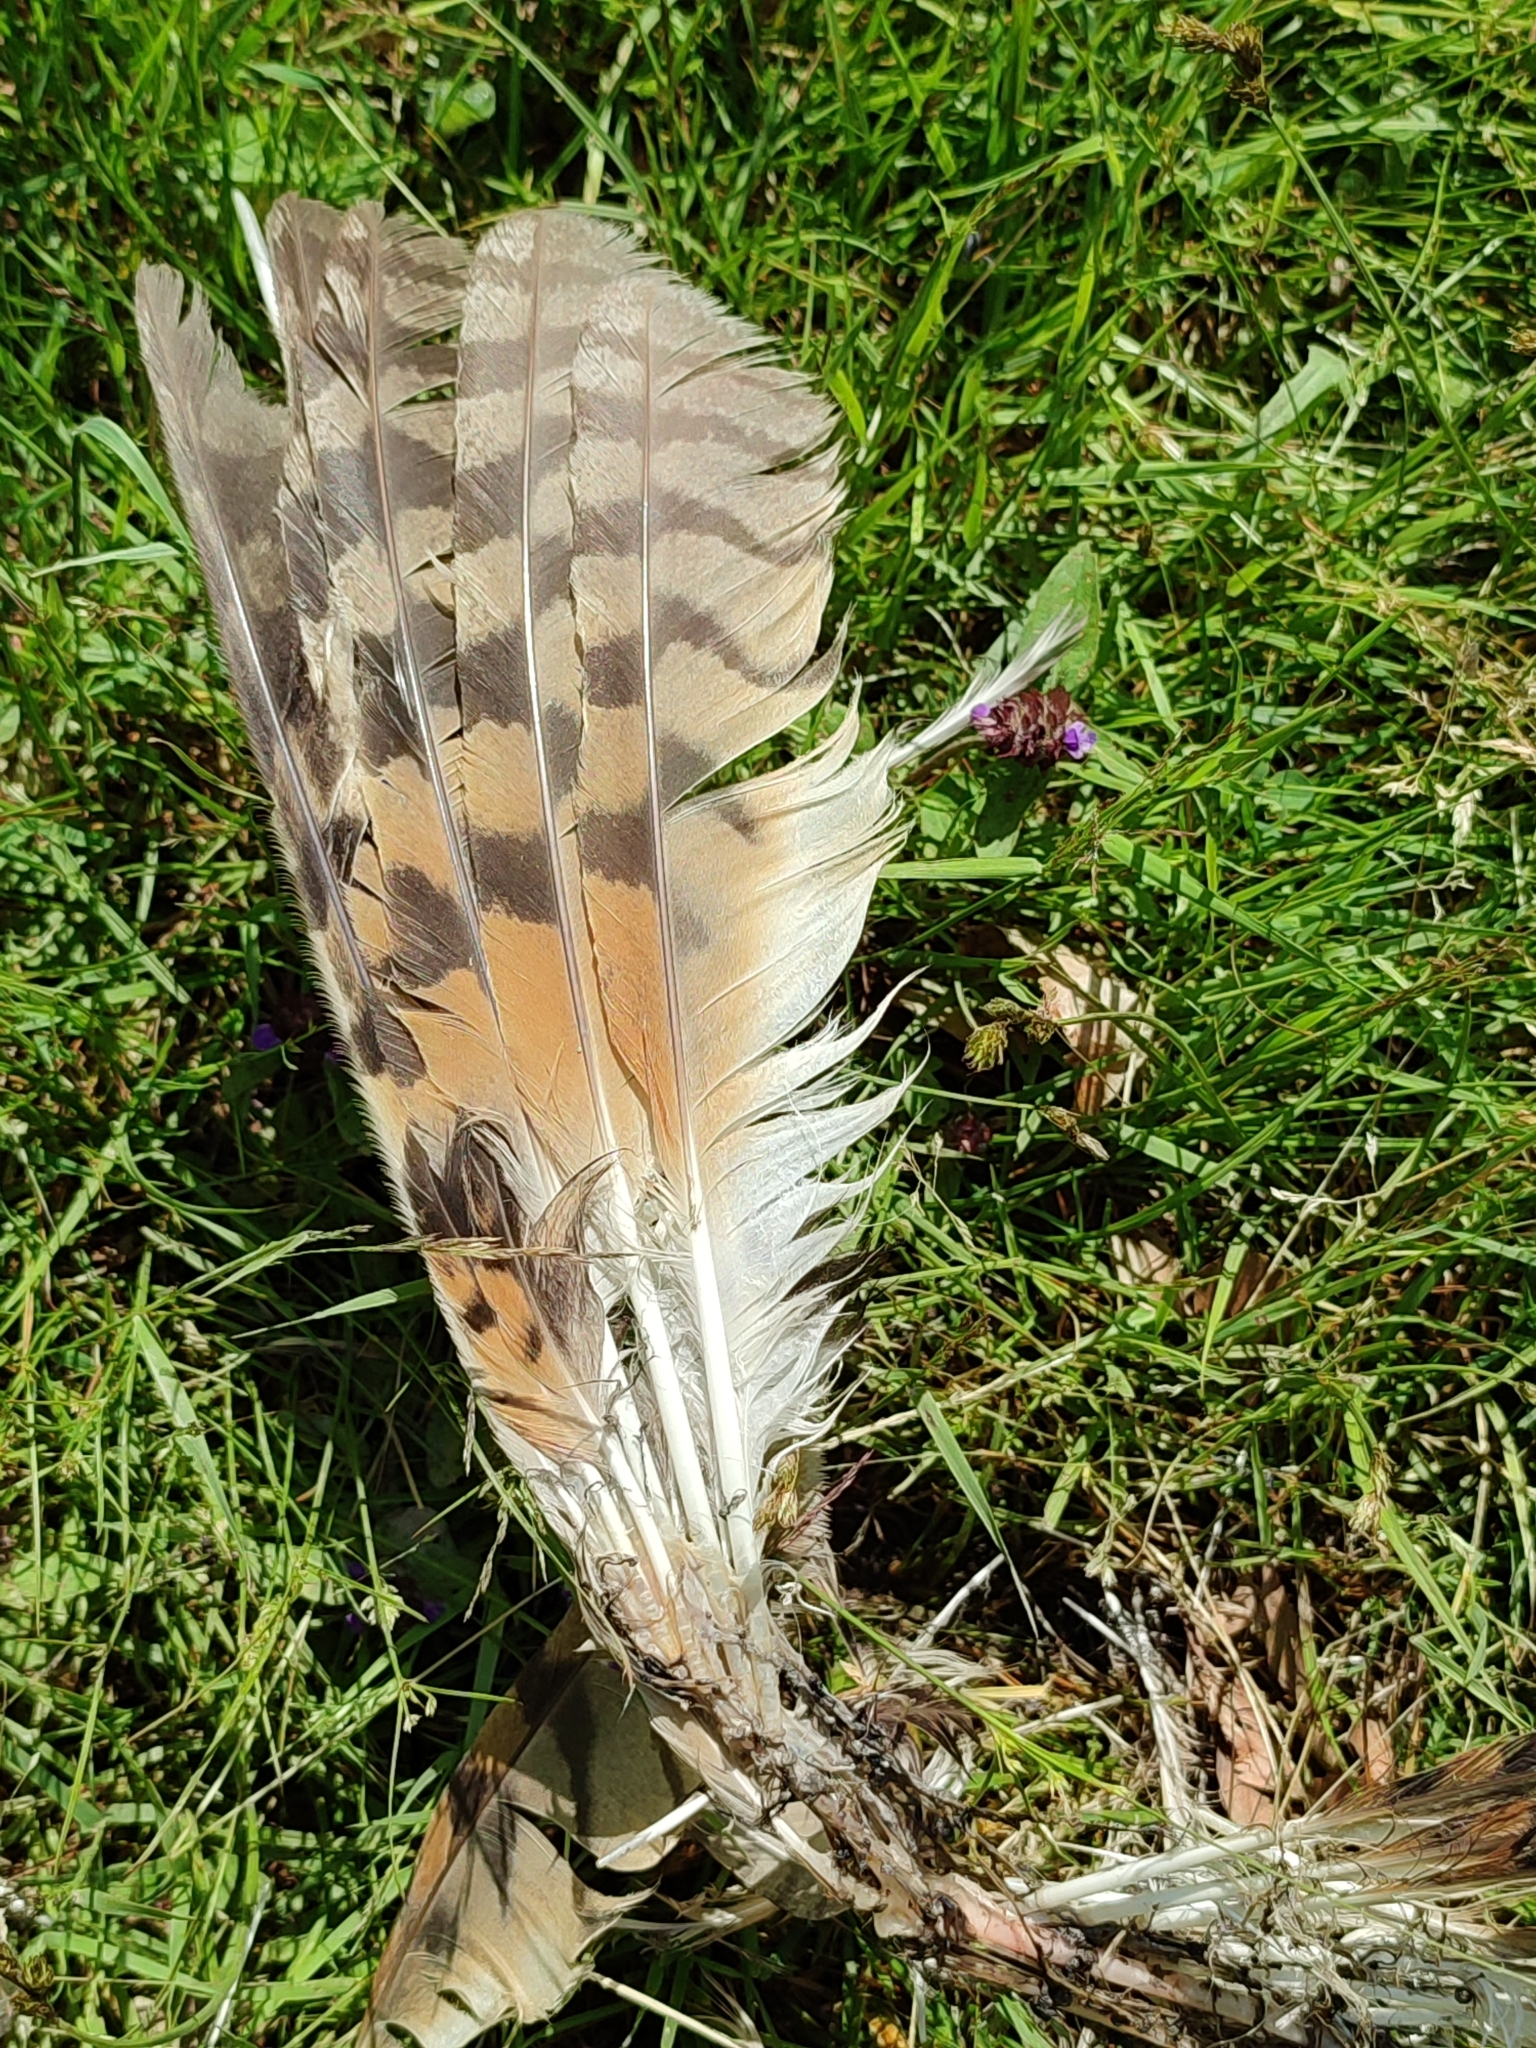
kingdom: Animalia
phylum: Chordata
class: Aves
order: Strigiformes
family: Strigidae
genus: Asio
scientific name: Asio otus
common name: Long-eared owl
